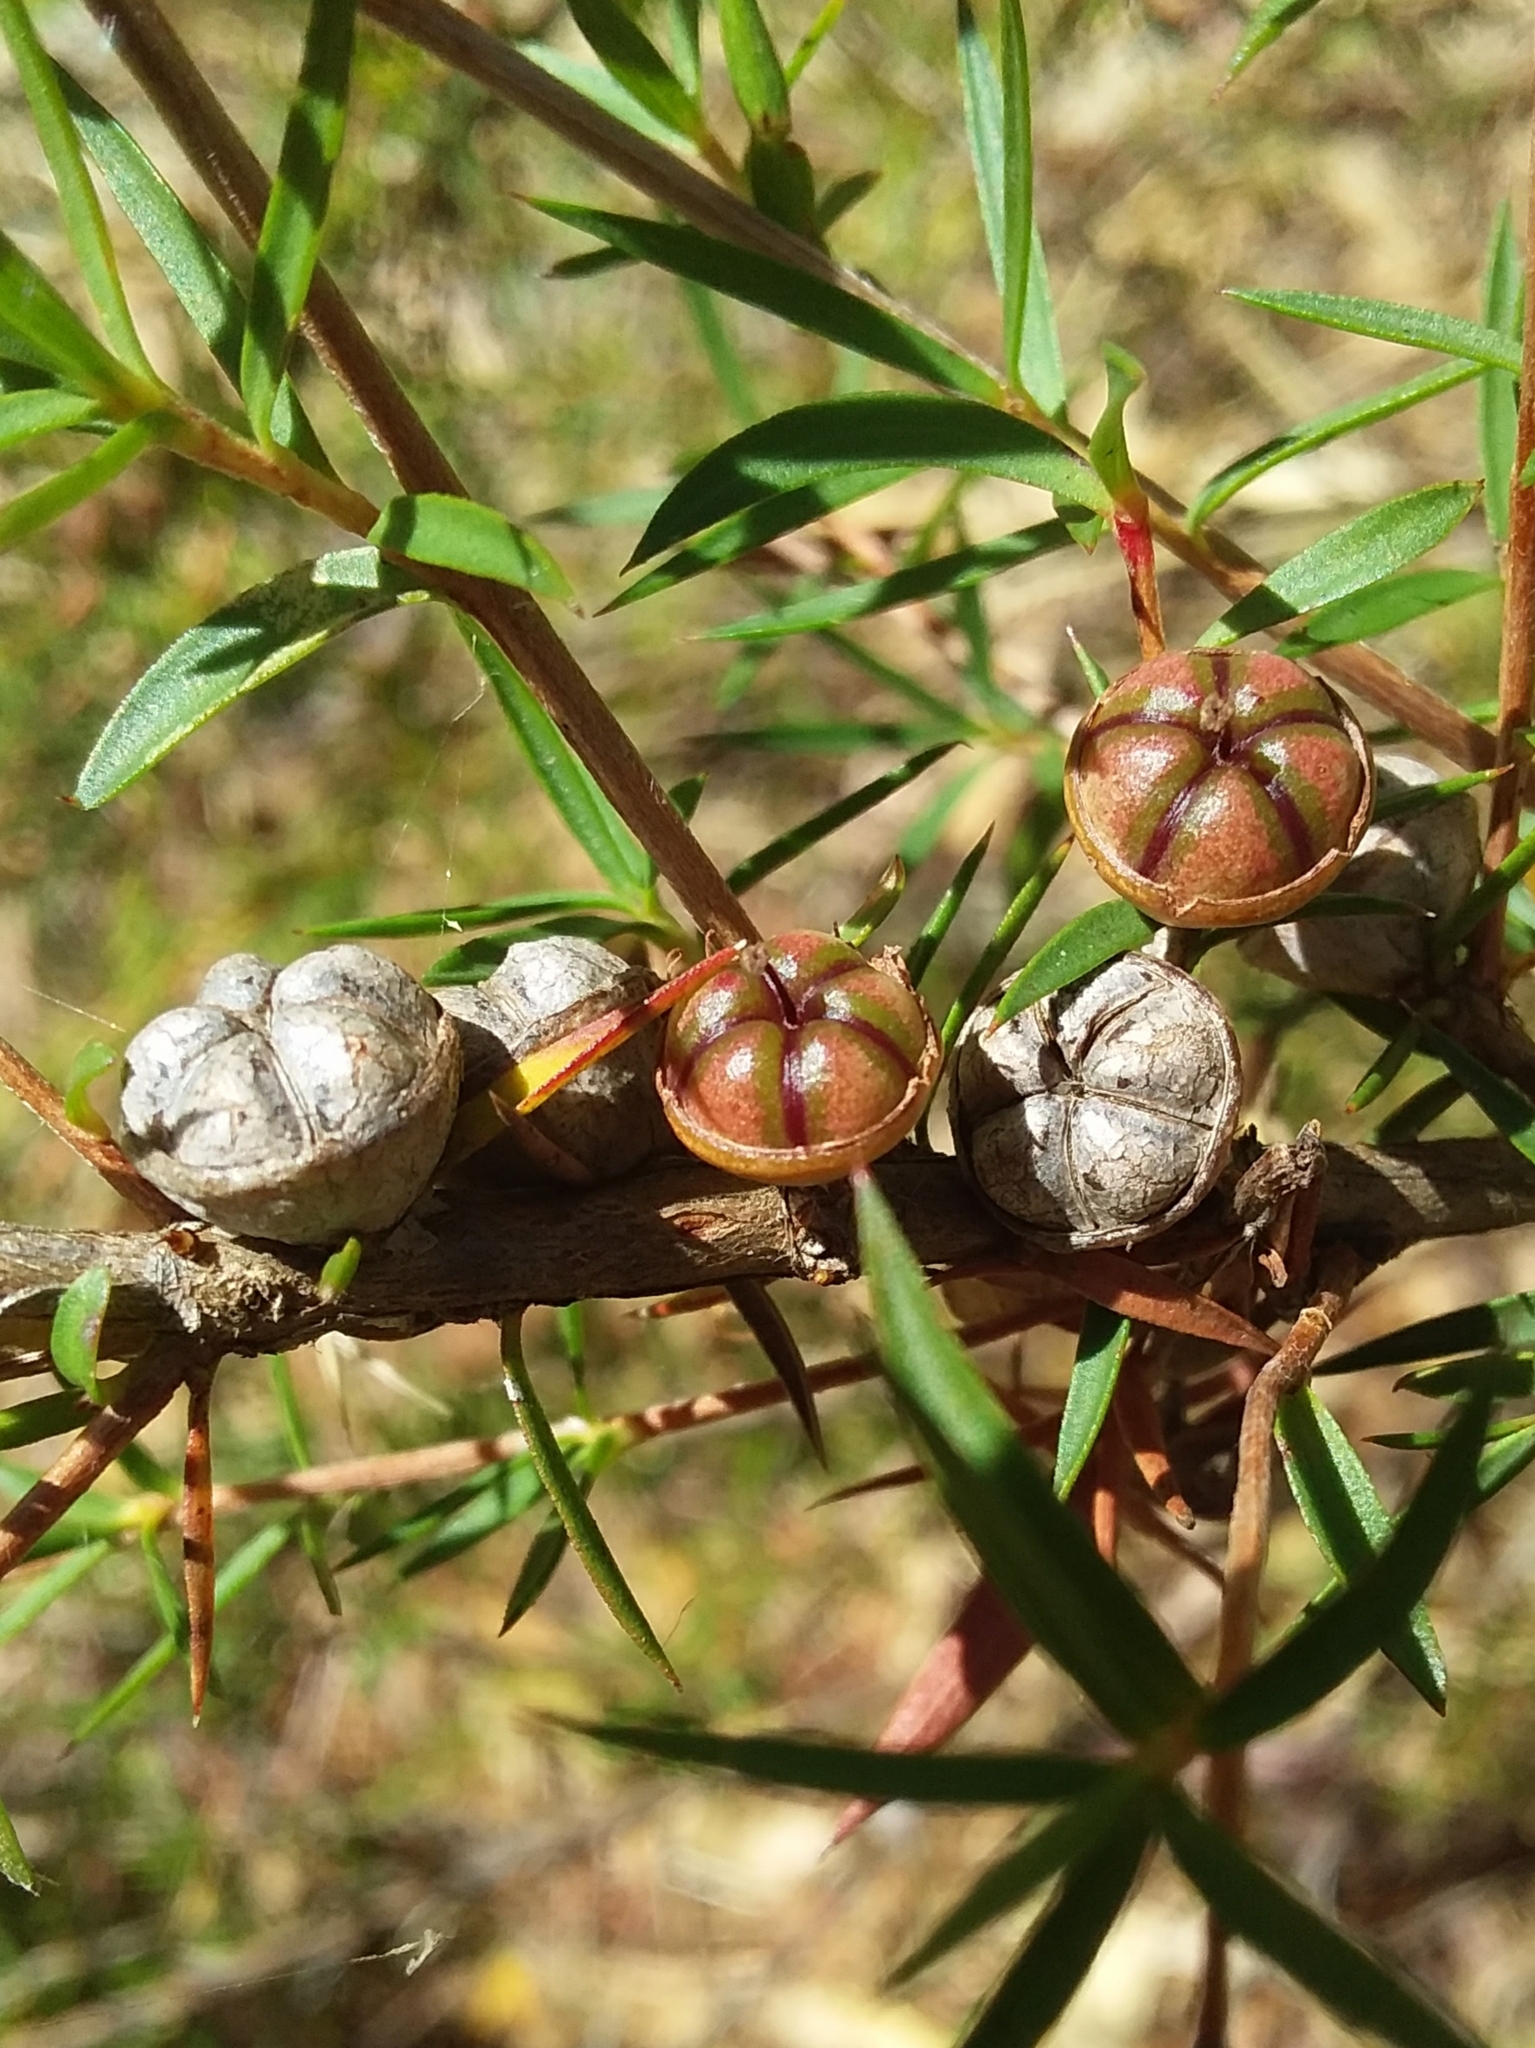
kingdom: Plantae
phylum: Tracheophyta
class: Magnoliopsida
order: Myrtales
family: Myrtaceae
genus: Leptospermum
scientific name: Leptospermum continentale
